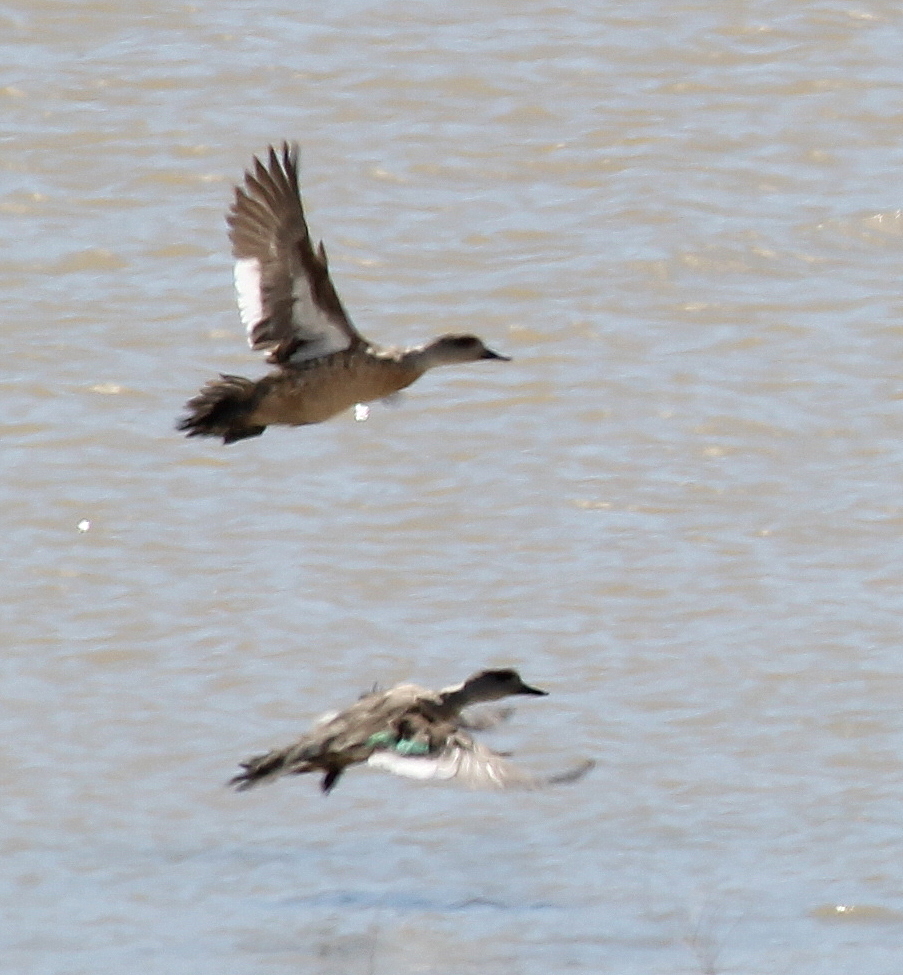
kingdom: Animalia
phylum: Chordata
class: Aves
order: Anseriformes
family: Anatidae
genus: Lophonetta
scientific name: Lophonetta specularioides
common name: Crested duck
